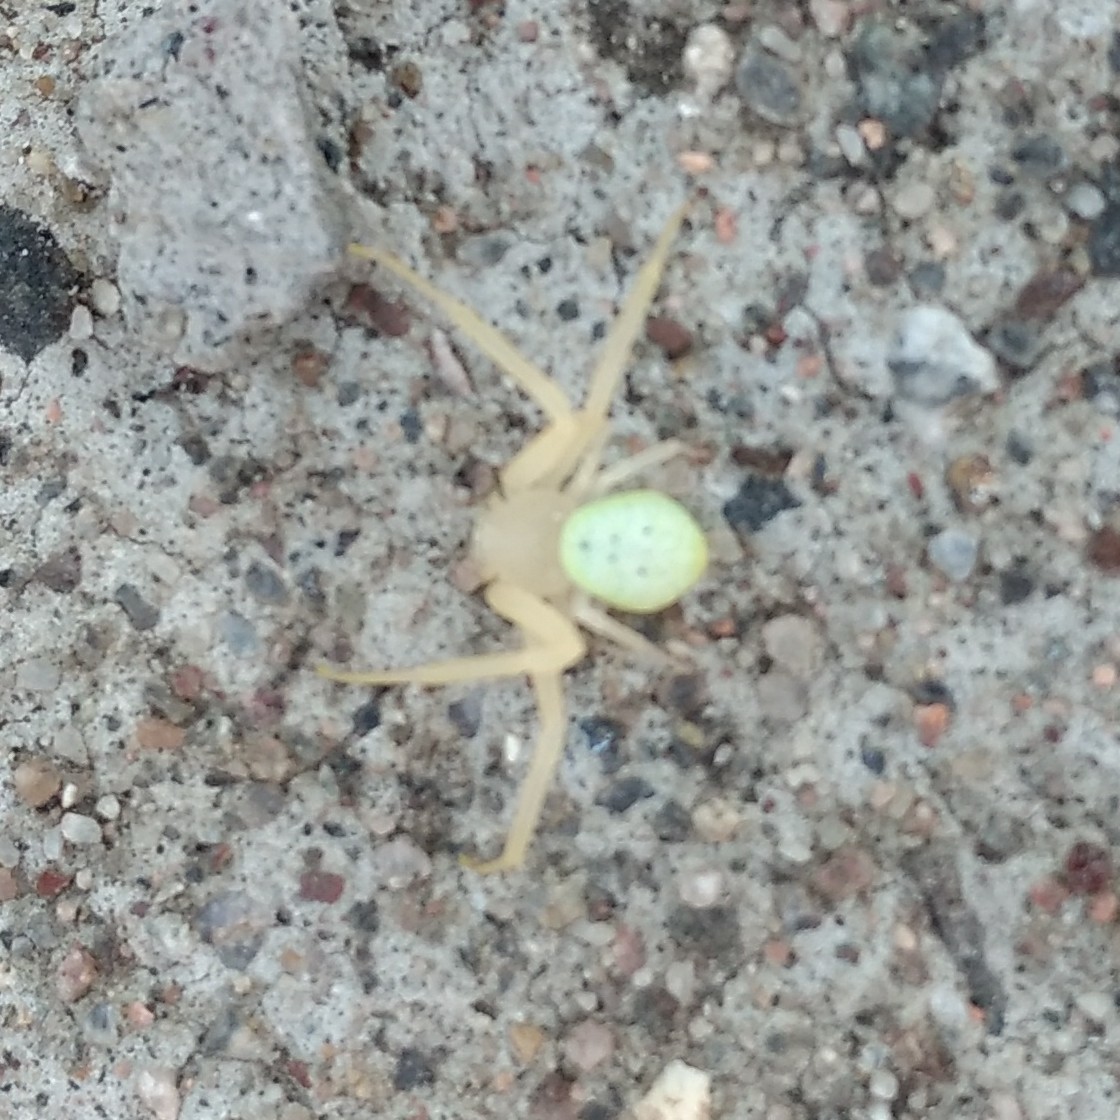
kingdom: Animalia
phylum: Arthropoda
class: Arachnida
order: Araneae
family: Thomisidae
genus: Misumessus
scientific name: Misumessus oblongus
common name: American green crab spider
